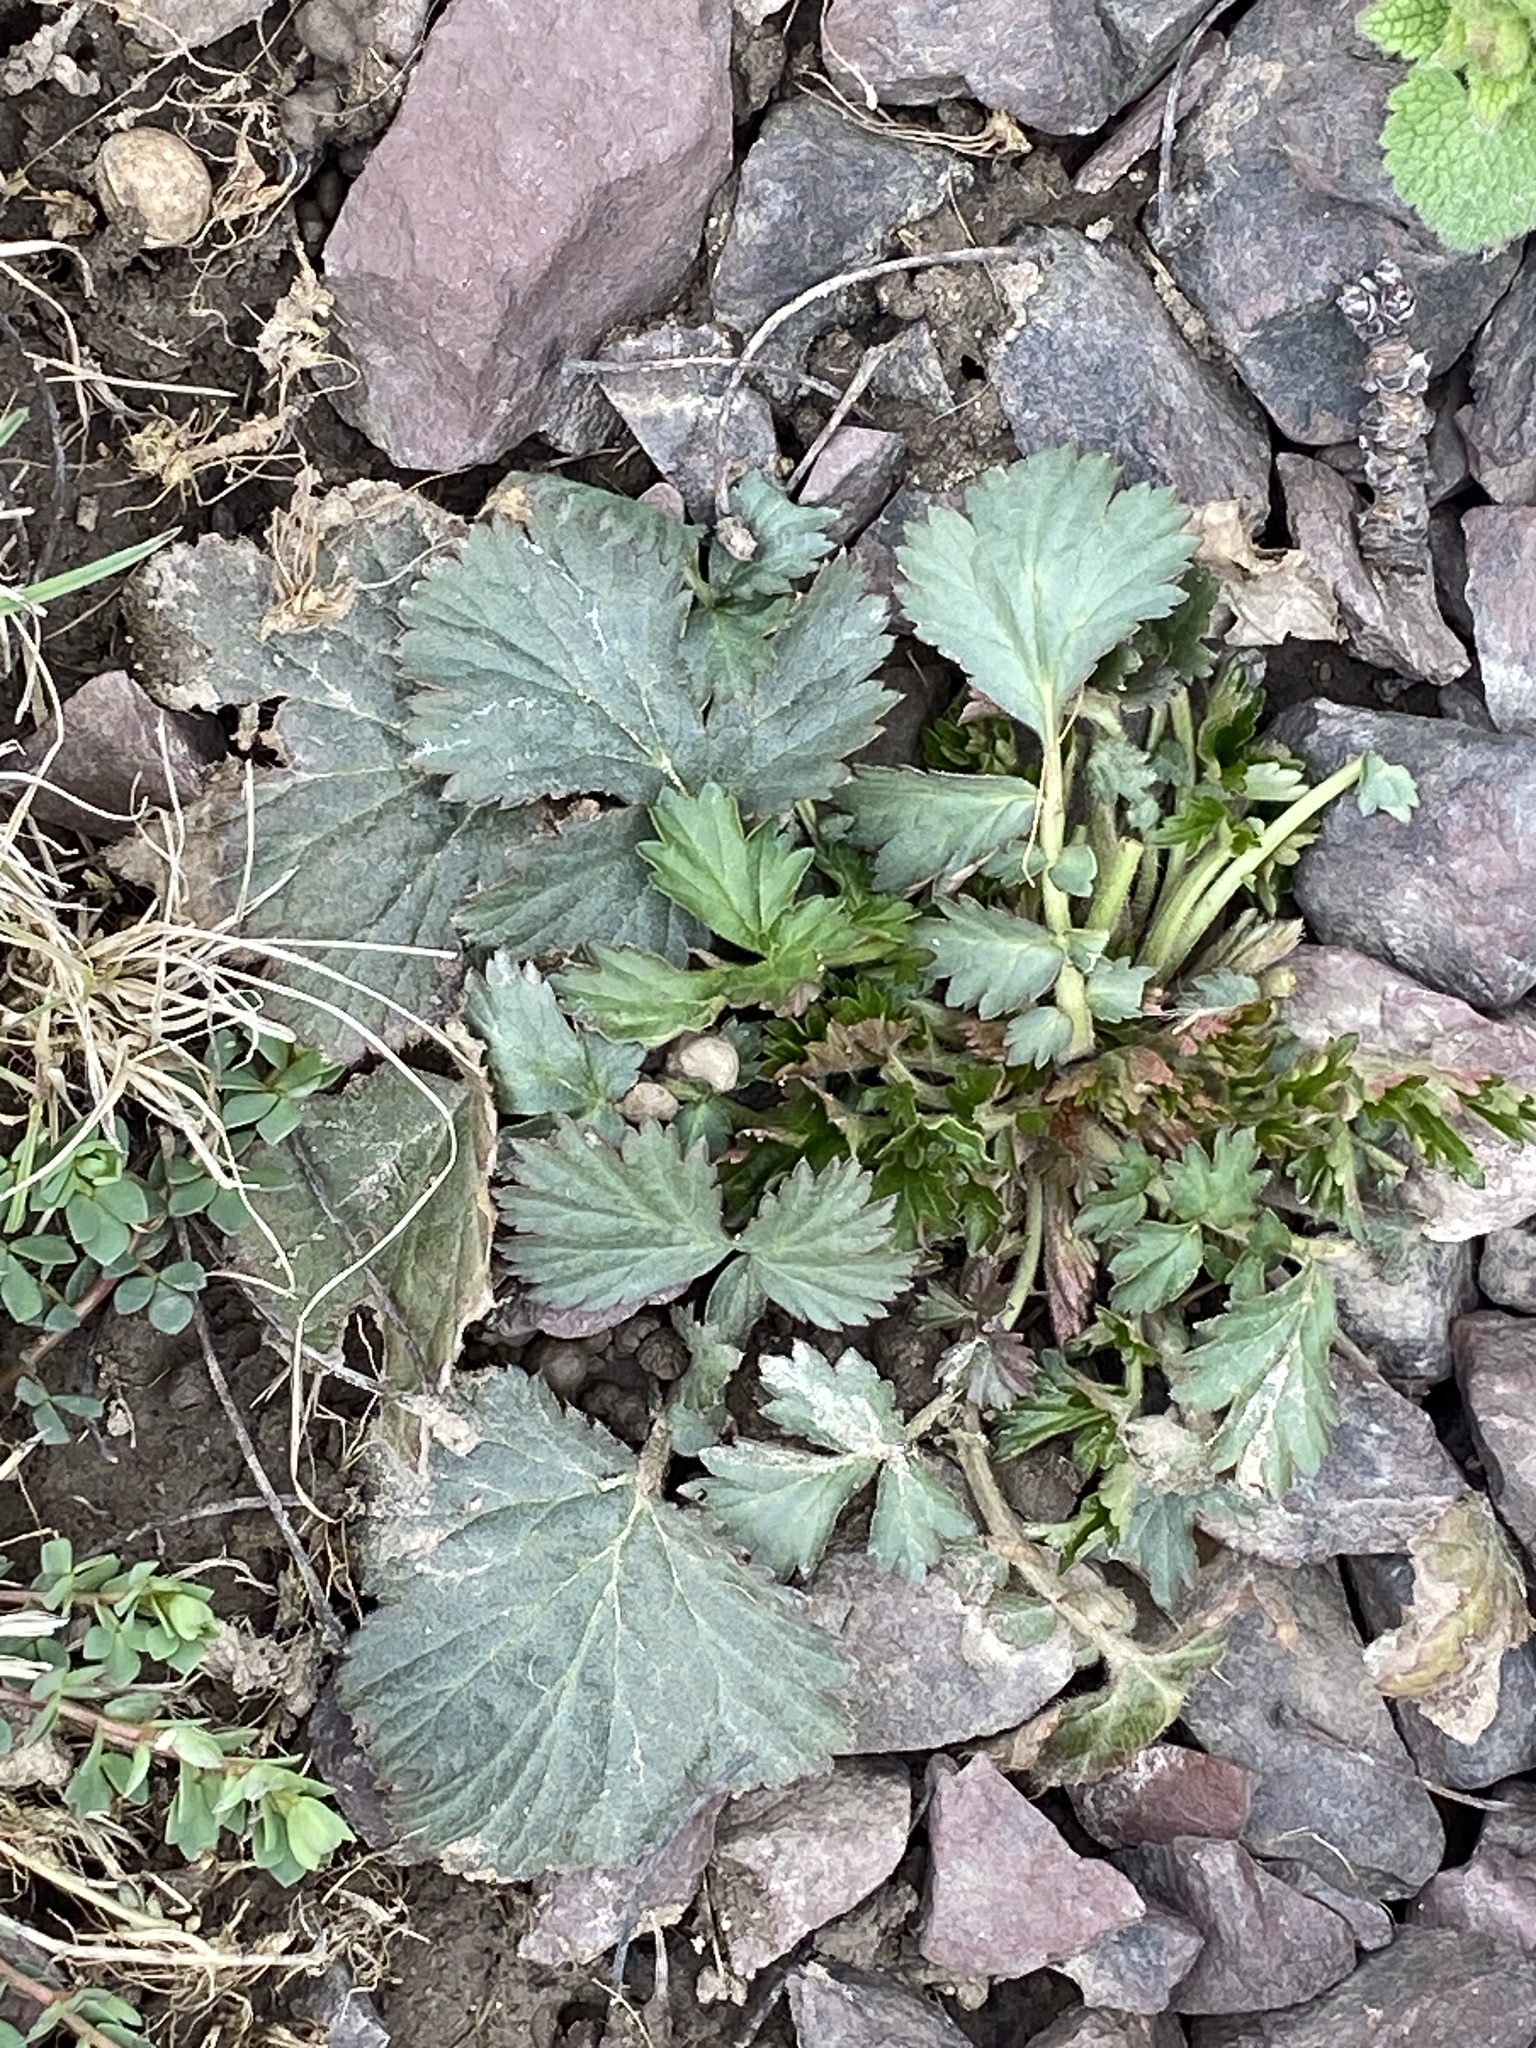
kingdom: Plantae
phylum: Tracheophyta
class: Magnoliopsida
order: Rosales
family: Rosaceae
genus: Geum
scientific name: Geum canadense
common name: White avens
